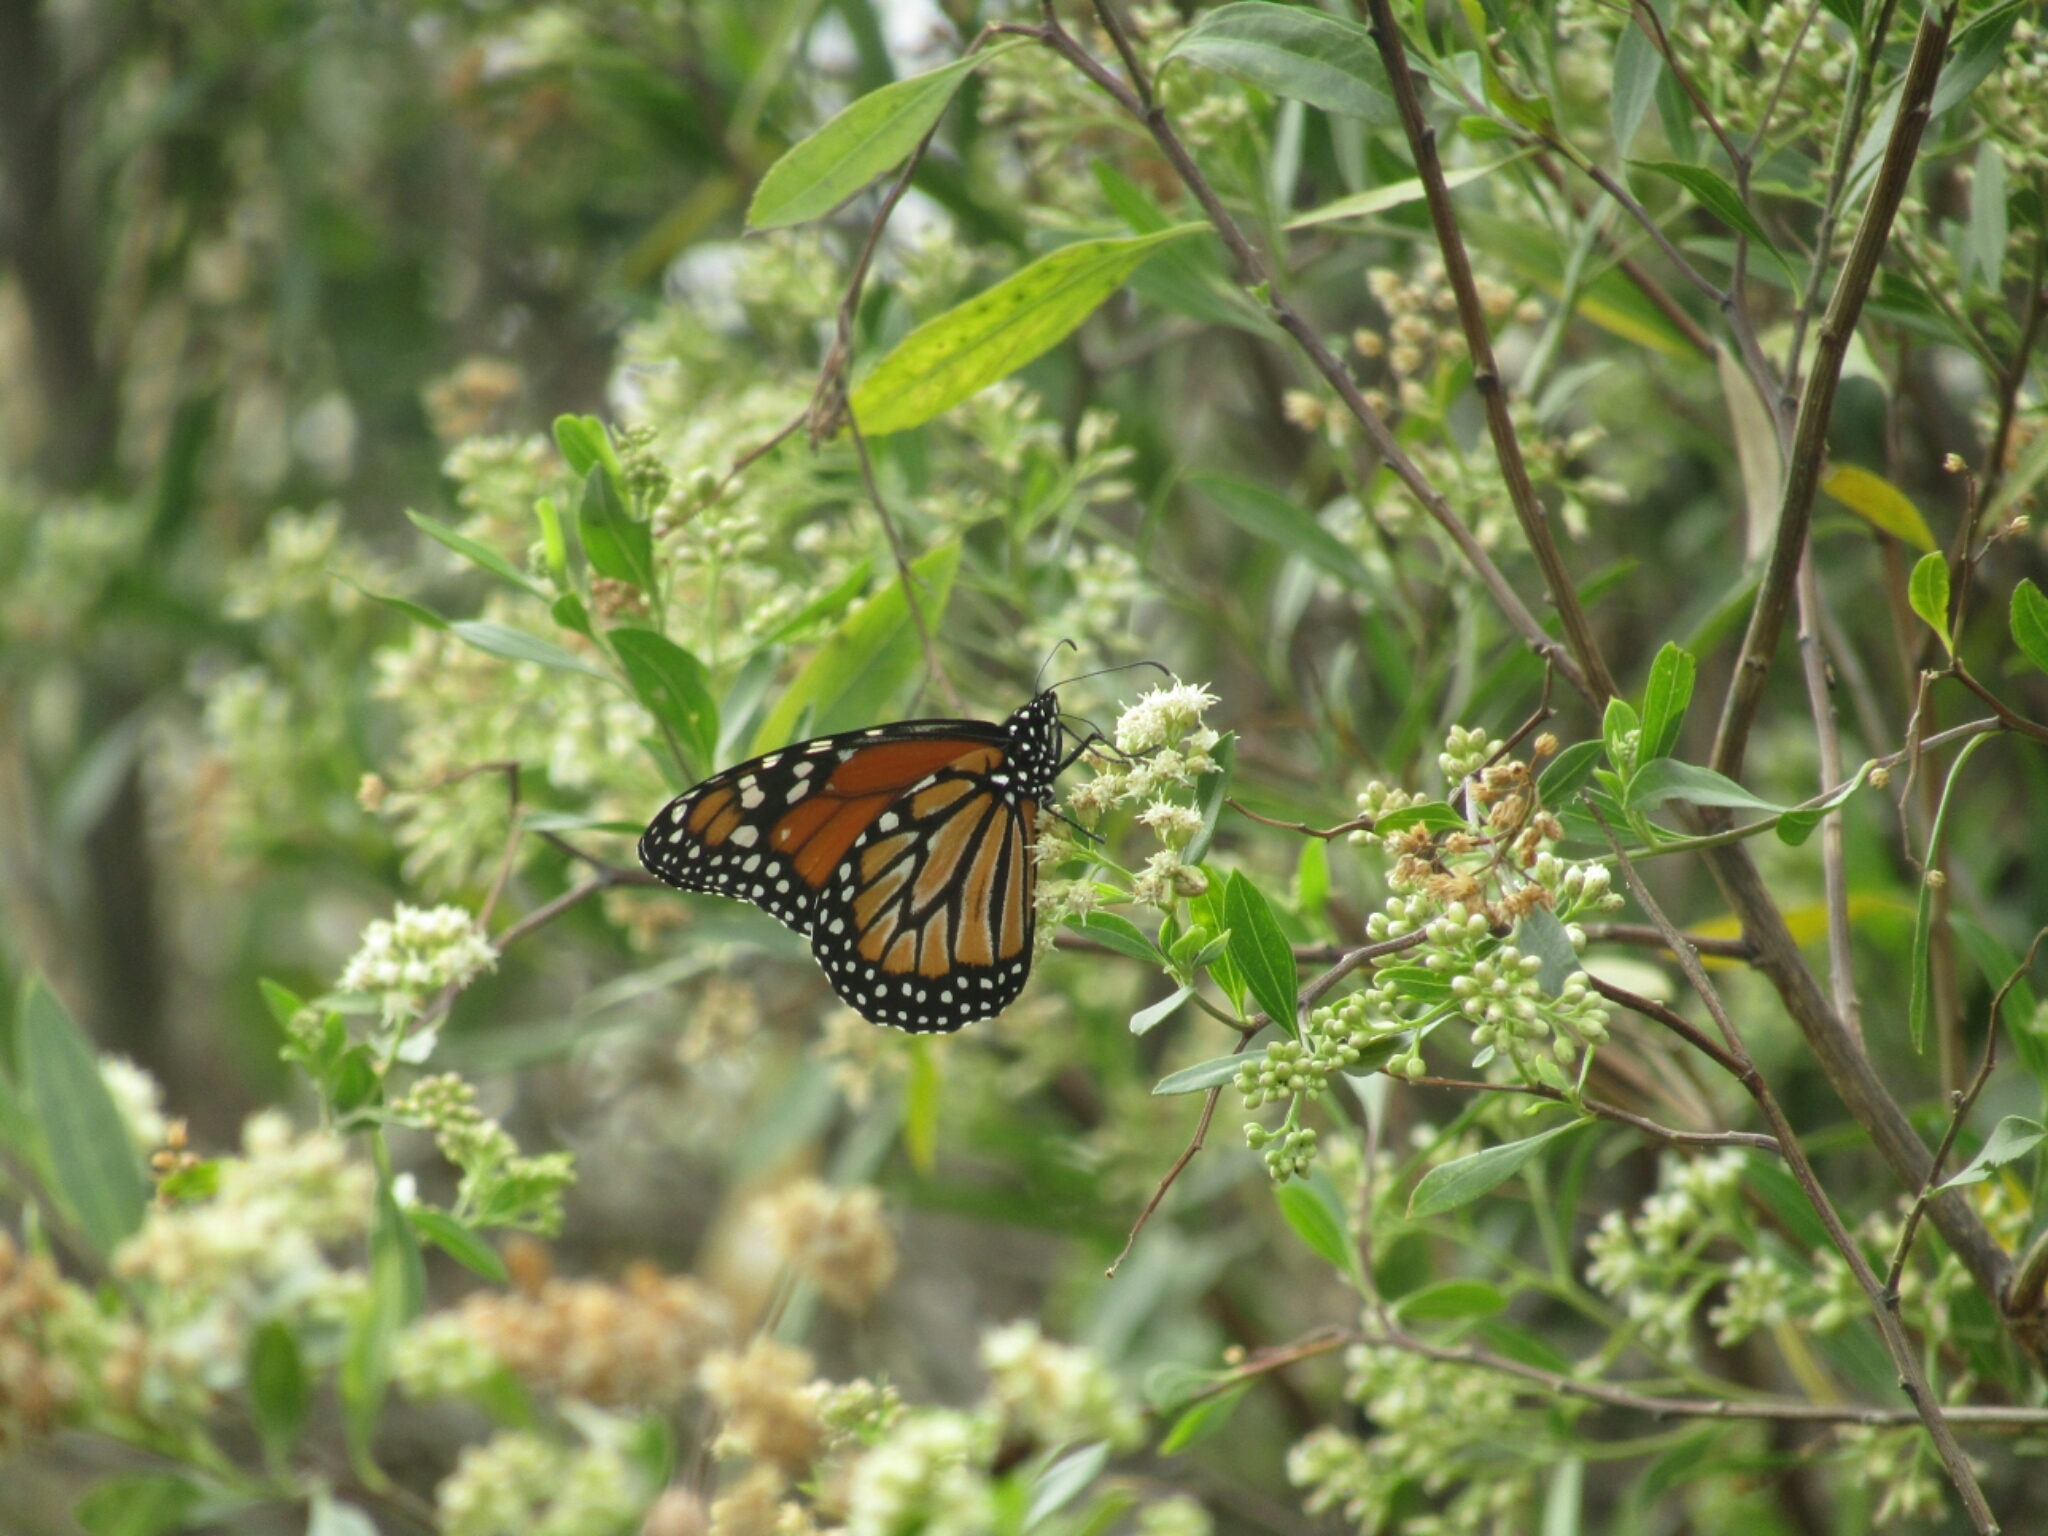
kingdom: Animalia
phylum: Arthropoda
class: Insecta
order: Lepidoptera
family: Nymphalidae
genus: Danaus
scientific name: Danaus erippus
